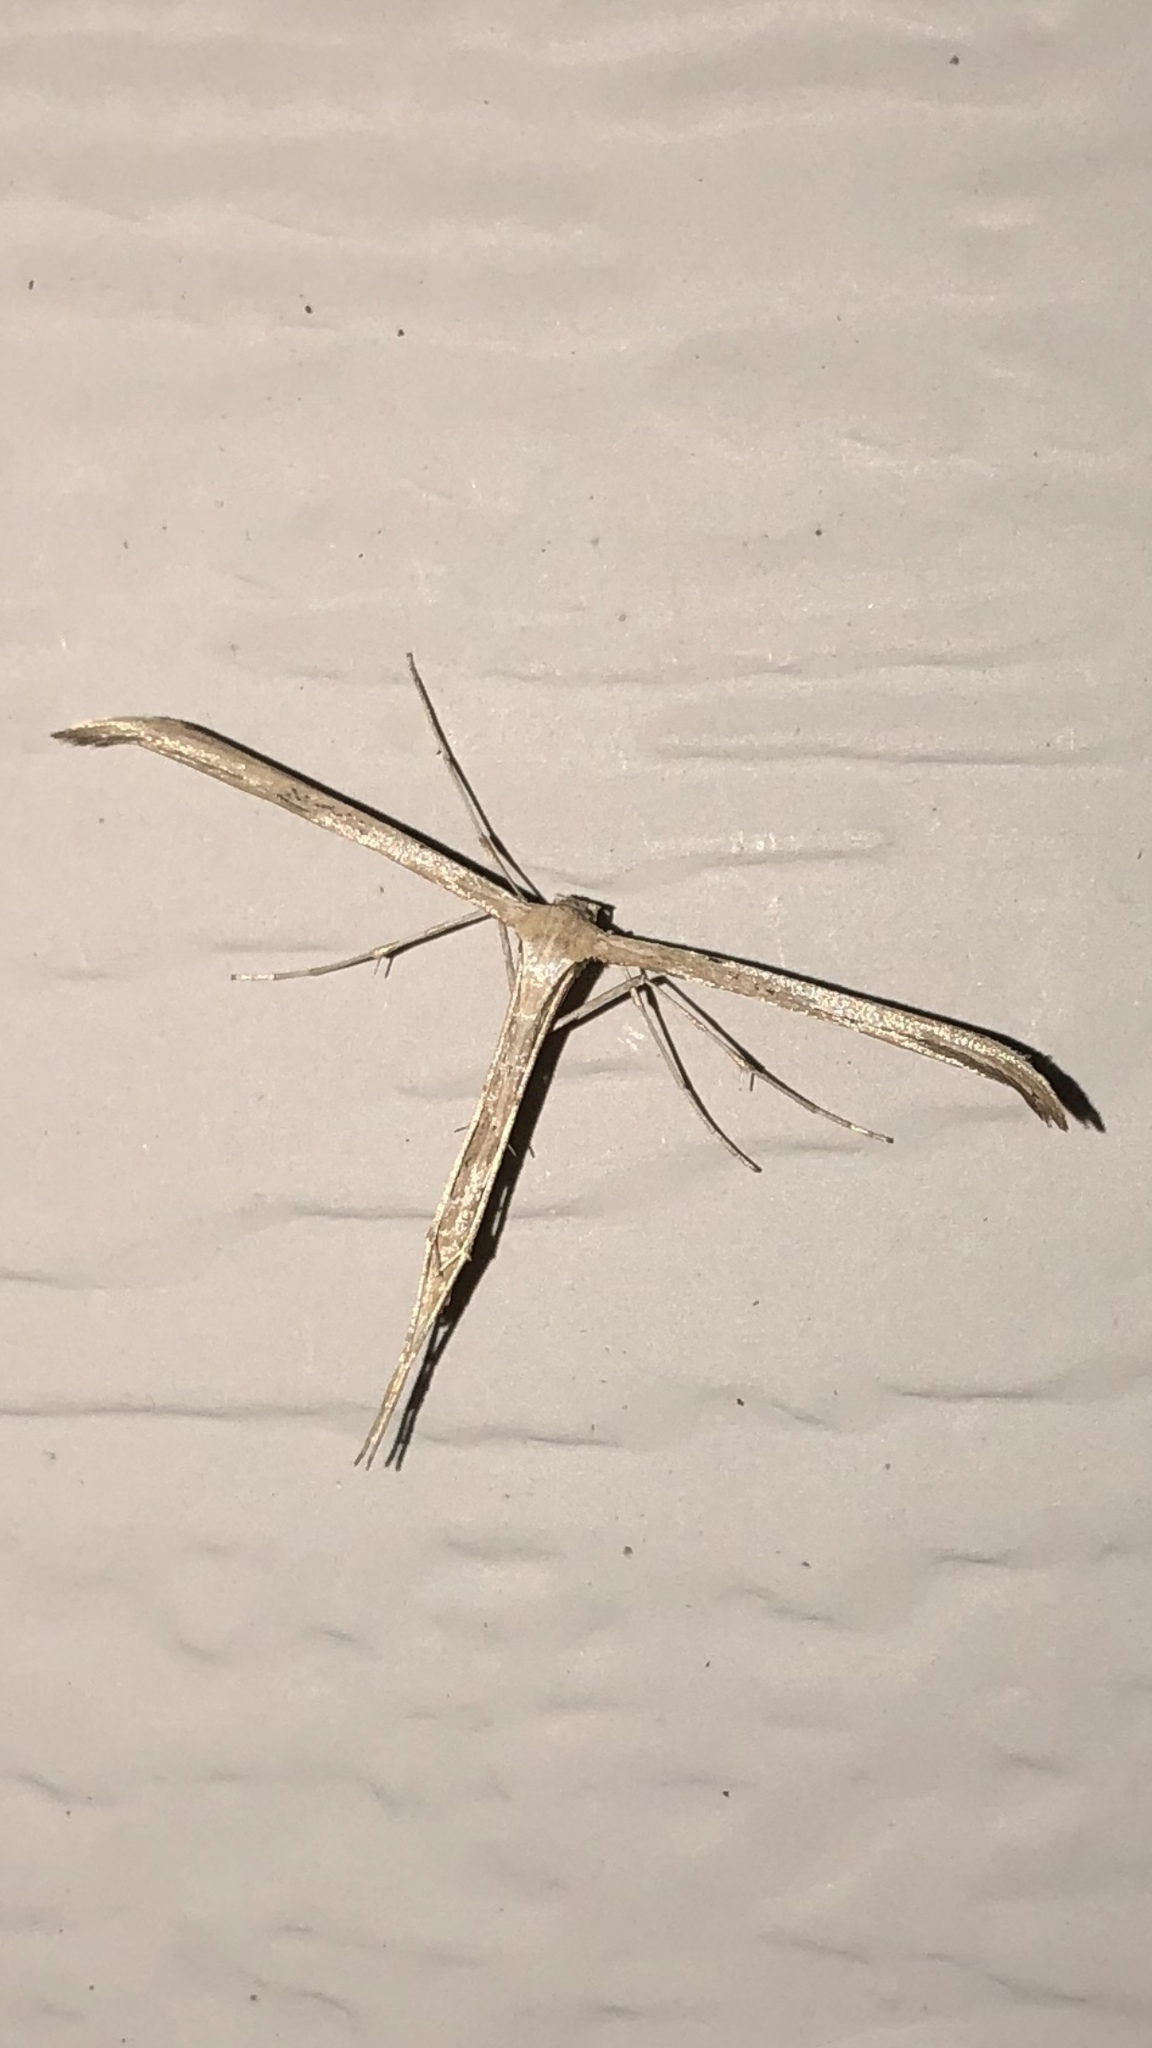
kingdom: Animalia
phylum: Arthropoda
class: Insecta
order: Lepidoptera
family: Pterophoridae
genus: Emmelina
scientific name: Emmelina monodactyla
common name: Common plume
